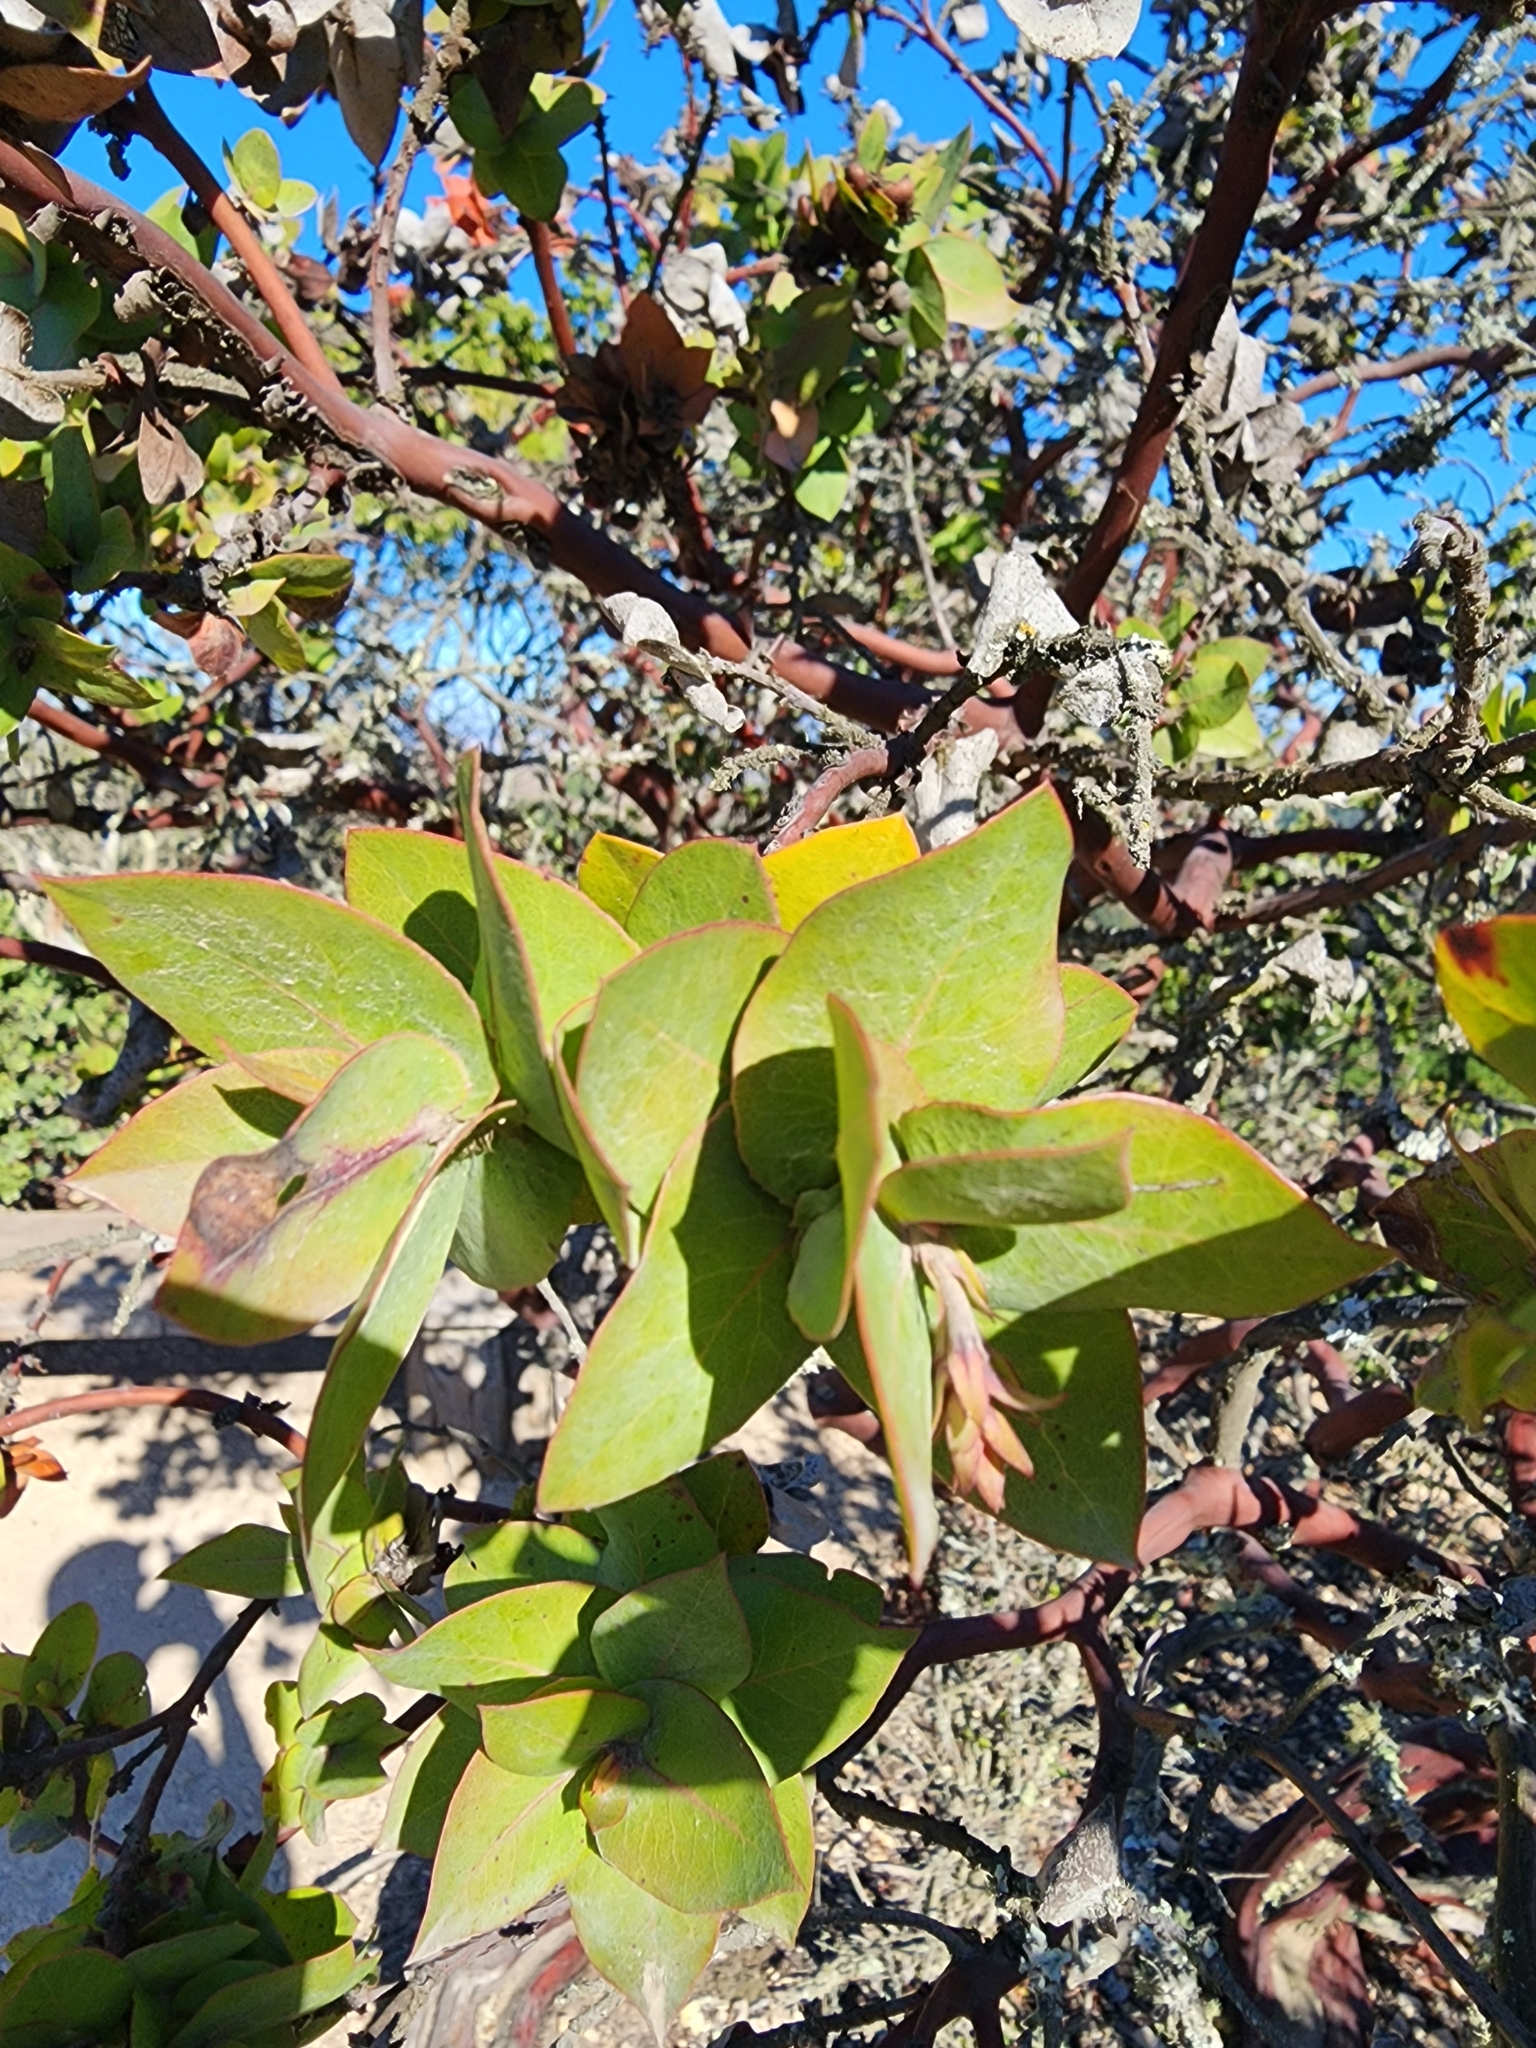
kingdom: Plantae
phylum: Tracheophyta
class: Magnoliopsida
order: Ericales
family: Ericaceae
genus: Arctostaphylos
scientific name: Arctostaphylos pallida
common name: Pallid manzanita
